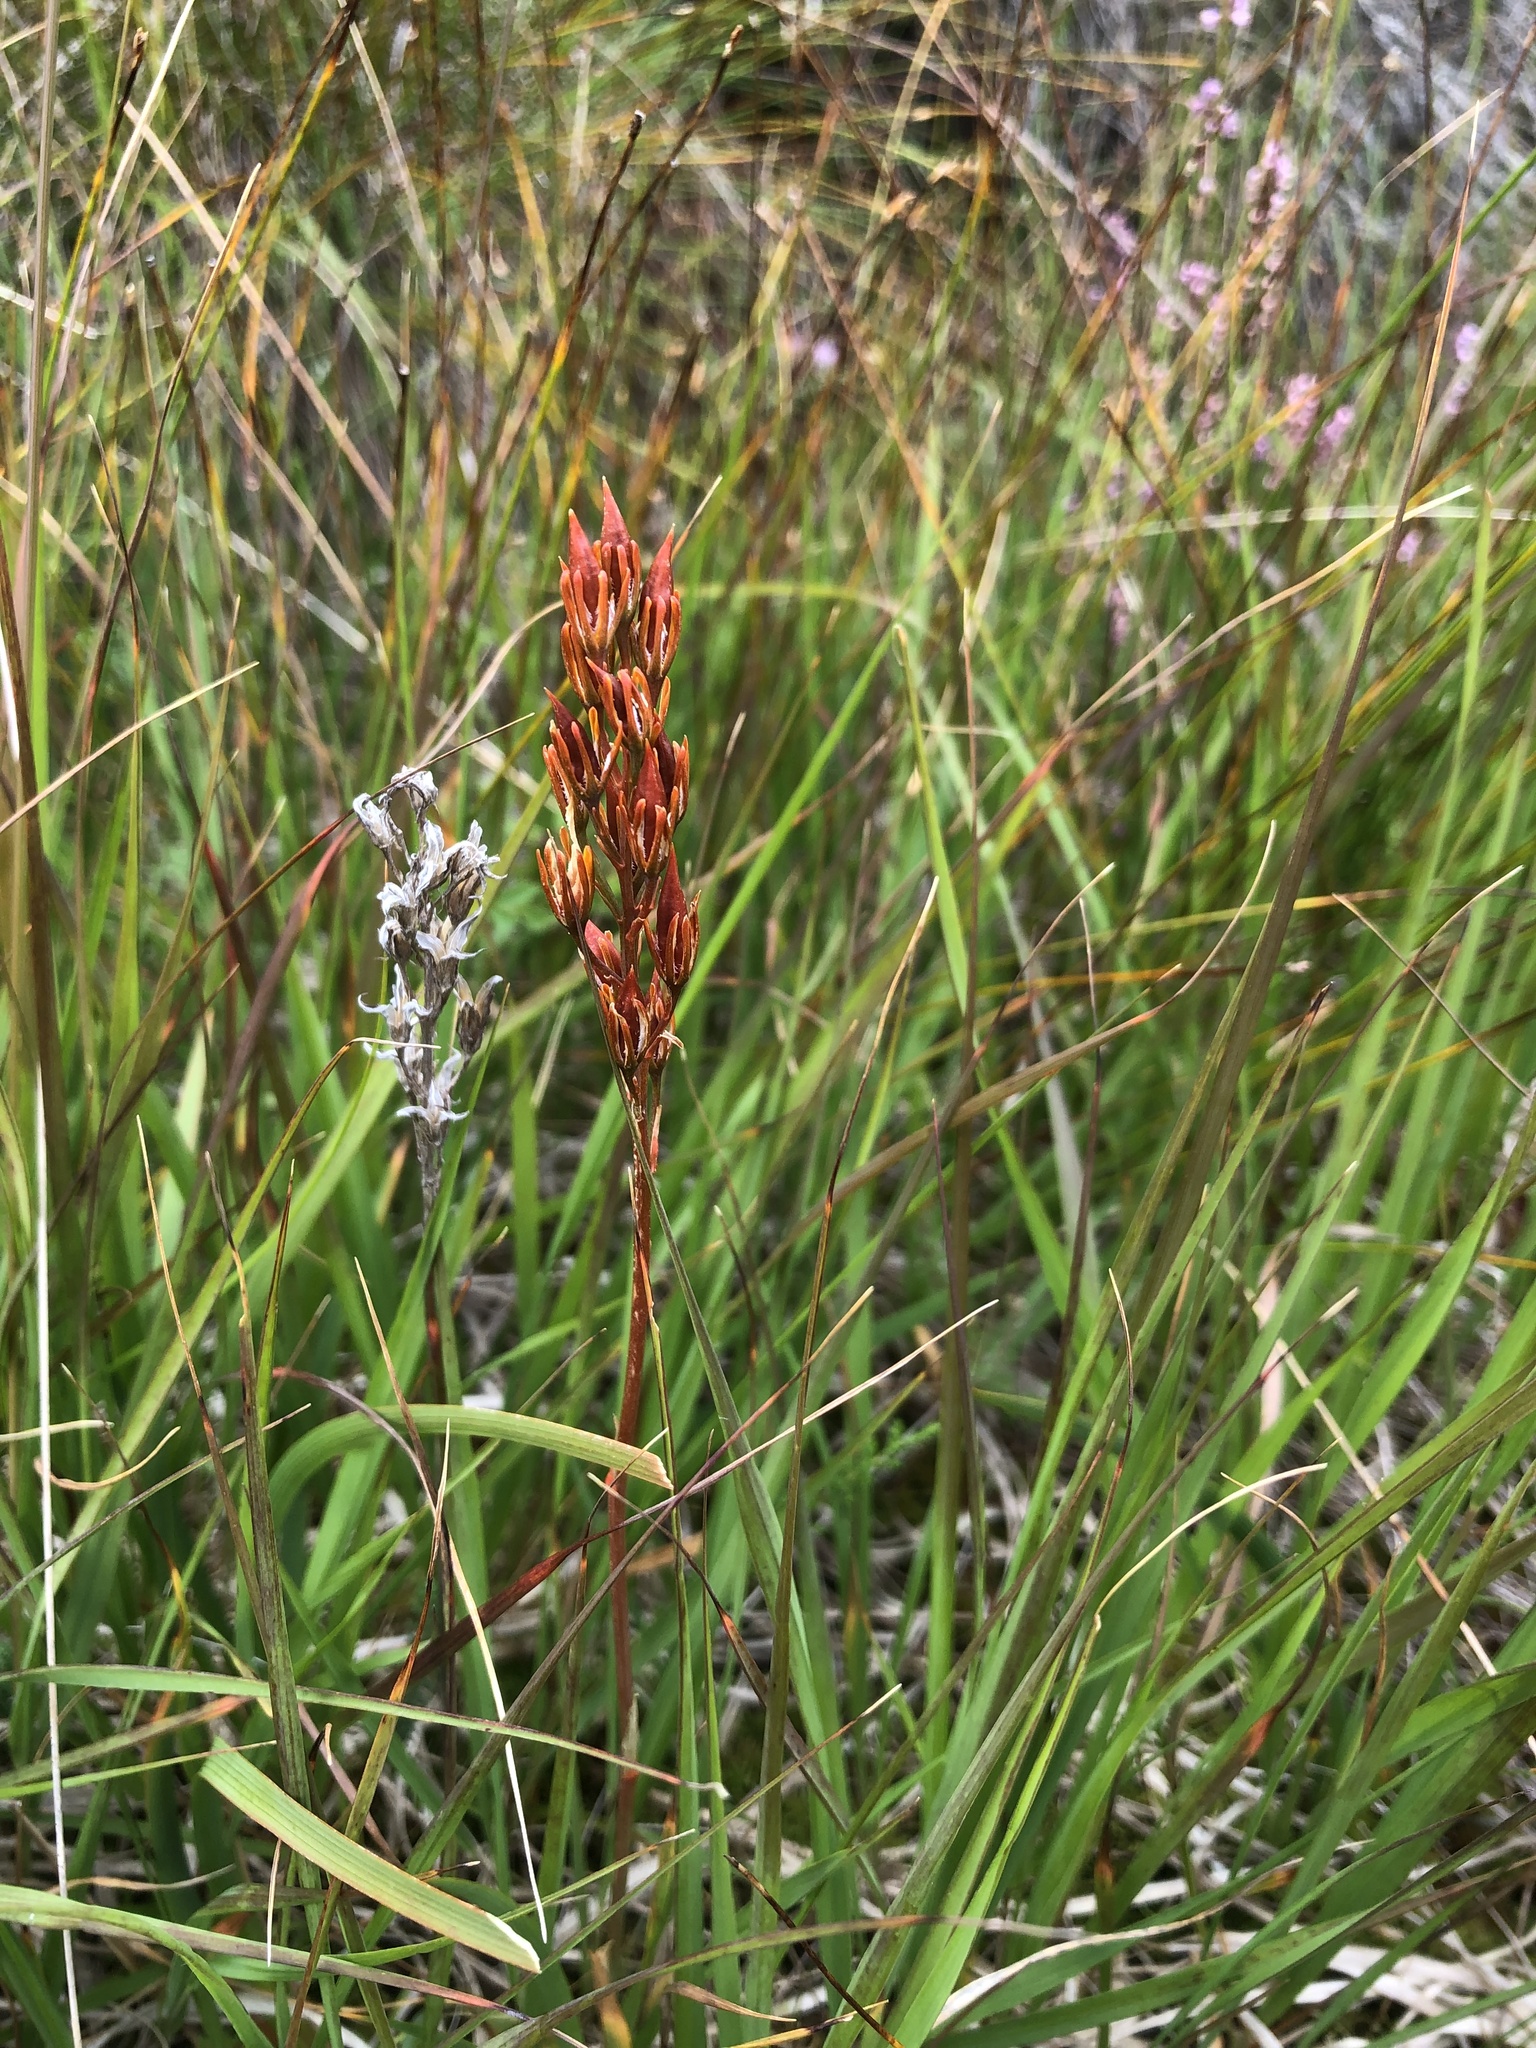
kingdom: Plantae
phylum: Tracheophyta
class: Liliopsida
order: Dioscoreales
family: Nartheciaceae
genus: Narthecium
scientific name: Narthecium ossifragum
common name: Bog asphodel
